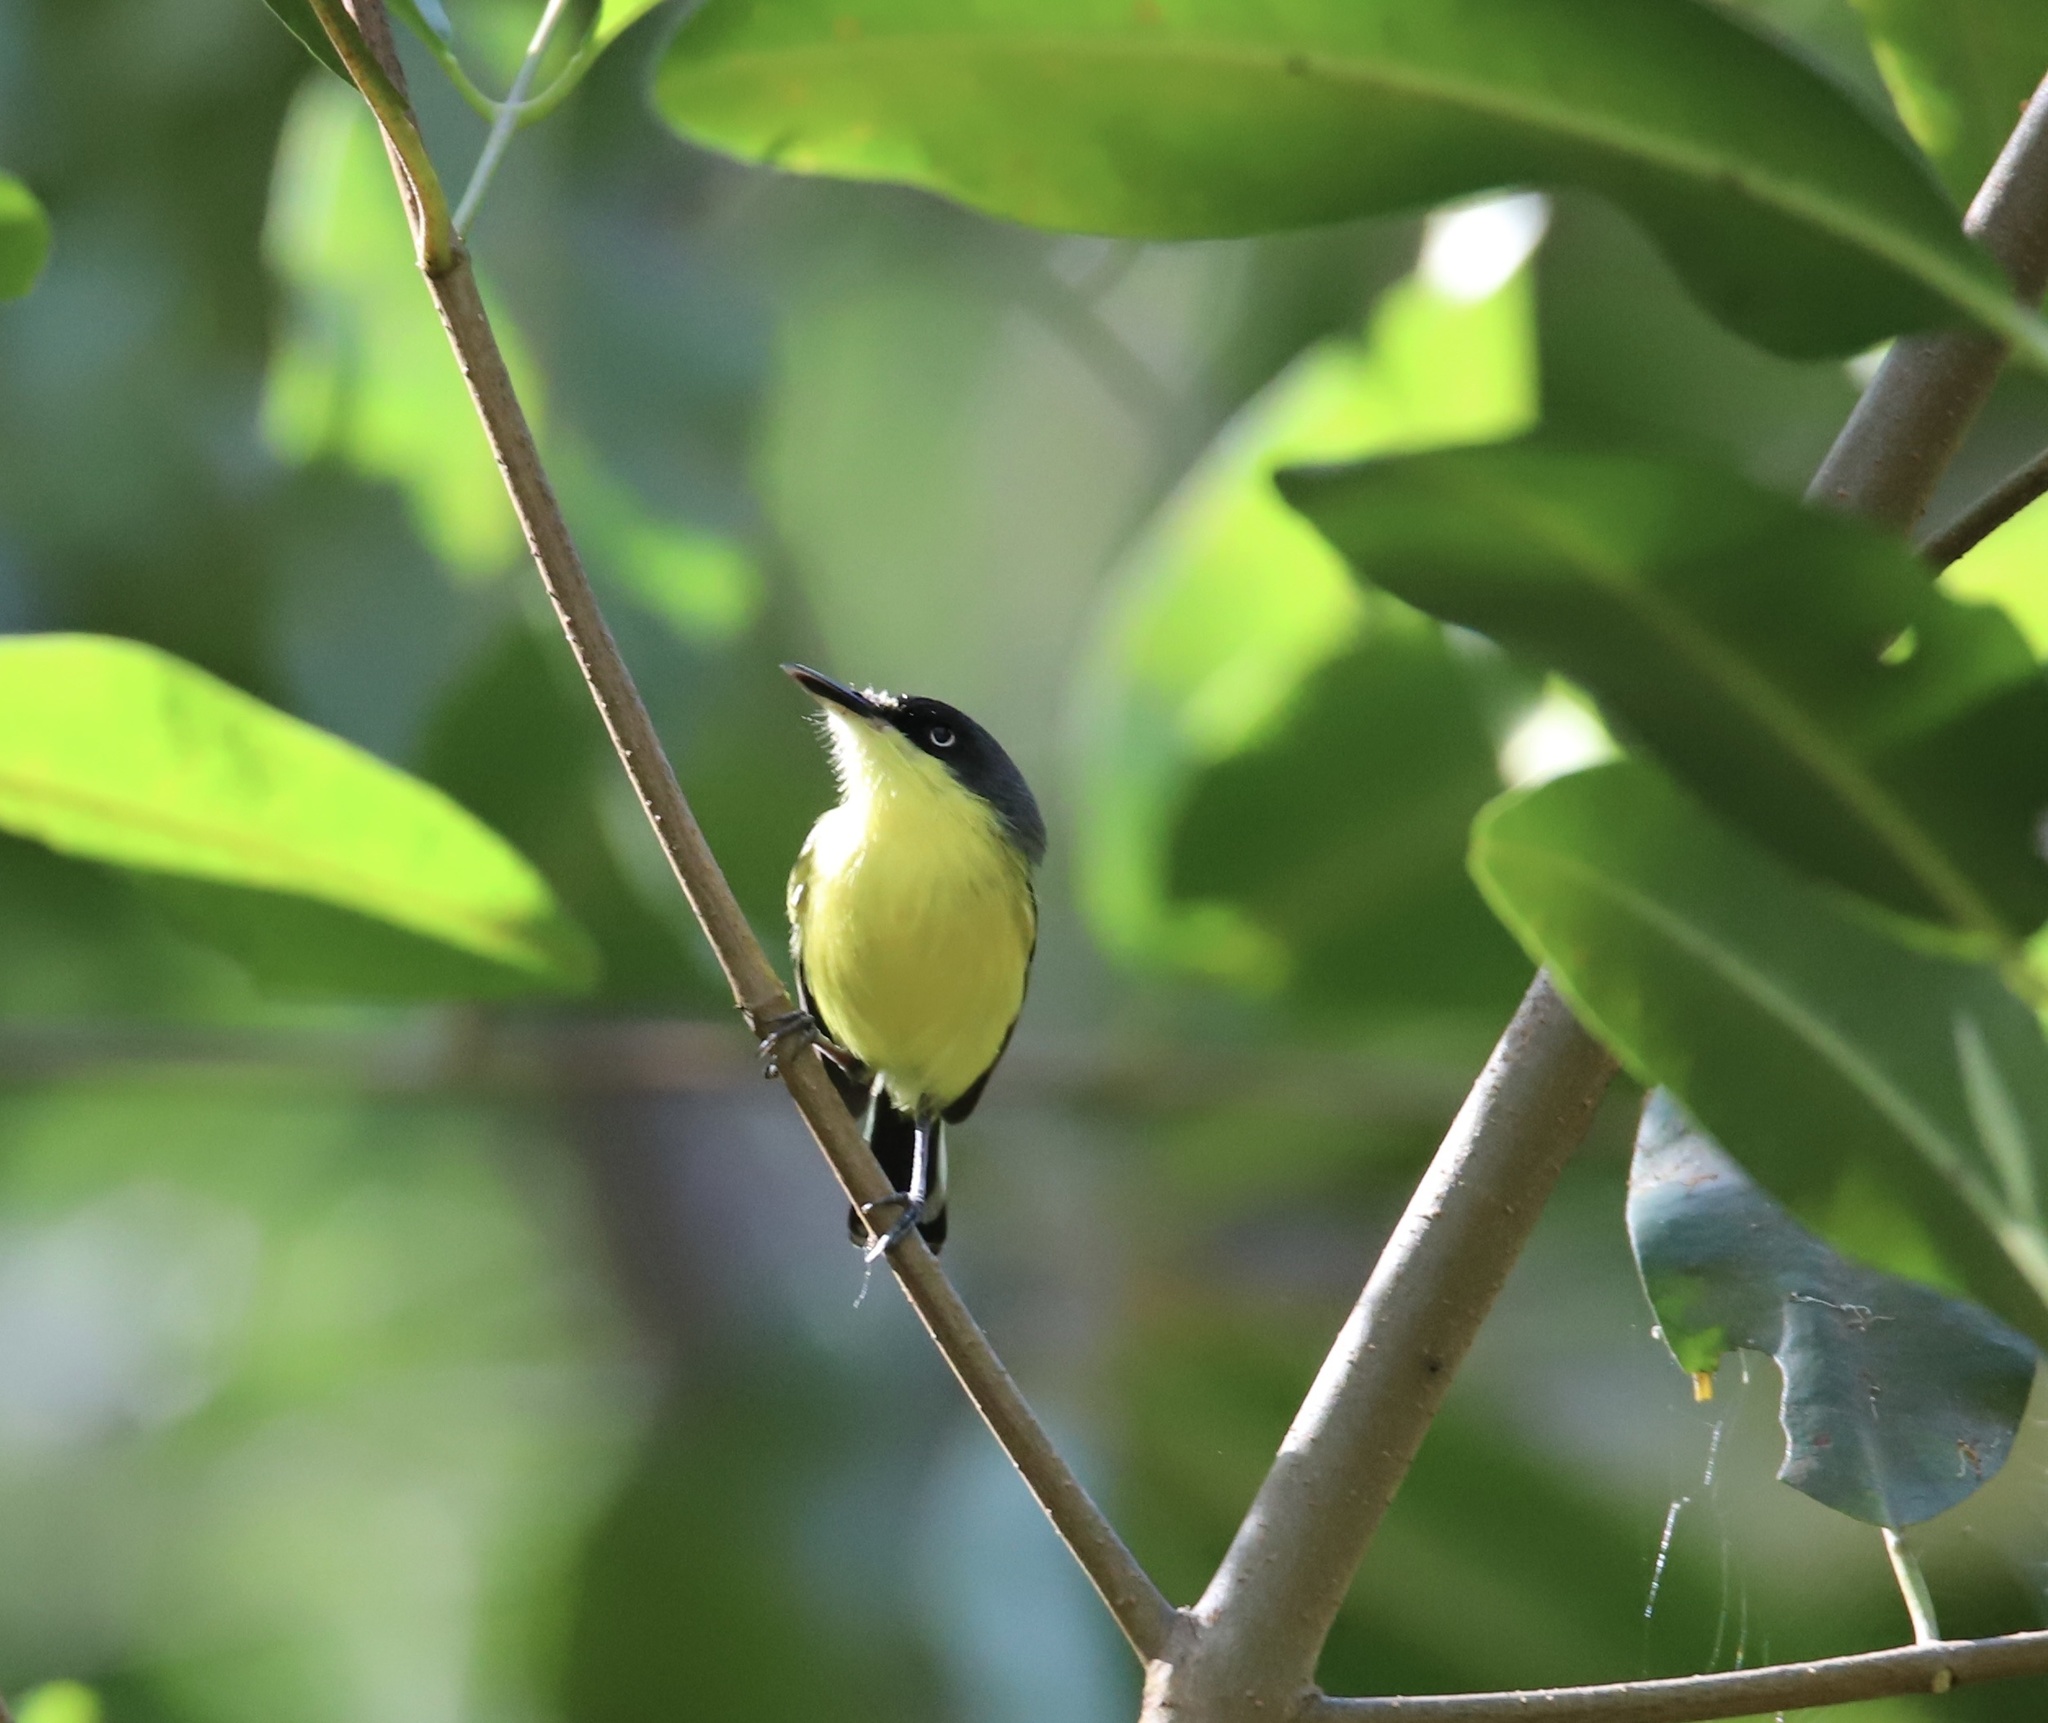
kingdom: Animalia
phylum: Chordata
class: Aves
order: Passeriformes
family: Tyrannidae
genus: Todirostrum
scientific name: Todirostrum cinereum
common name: Common tody-flycatcher
